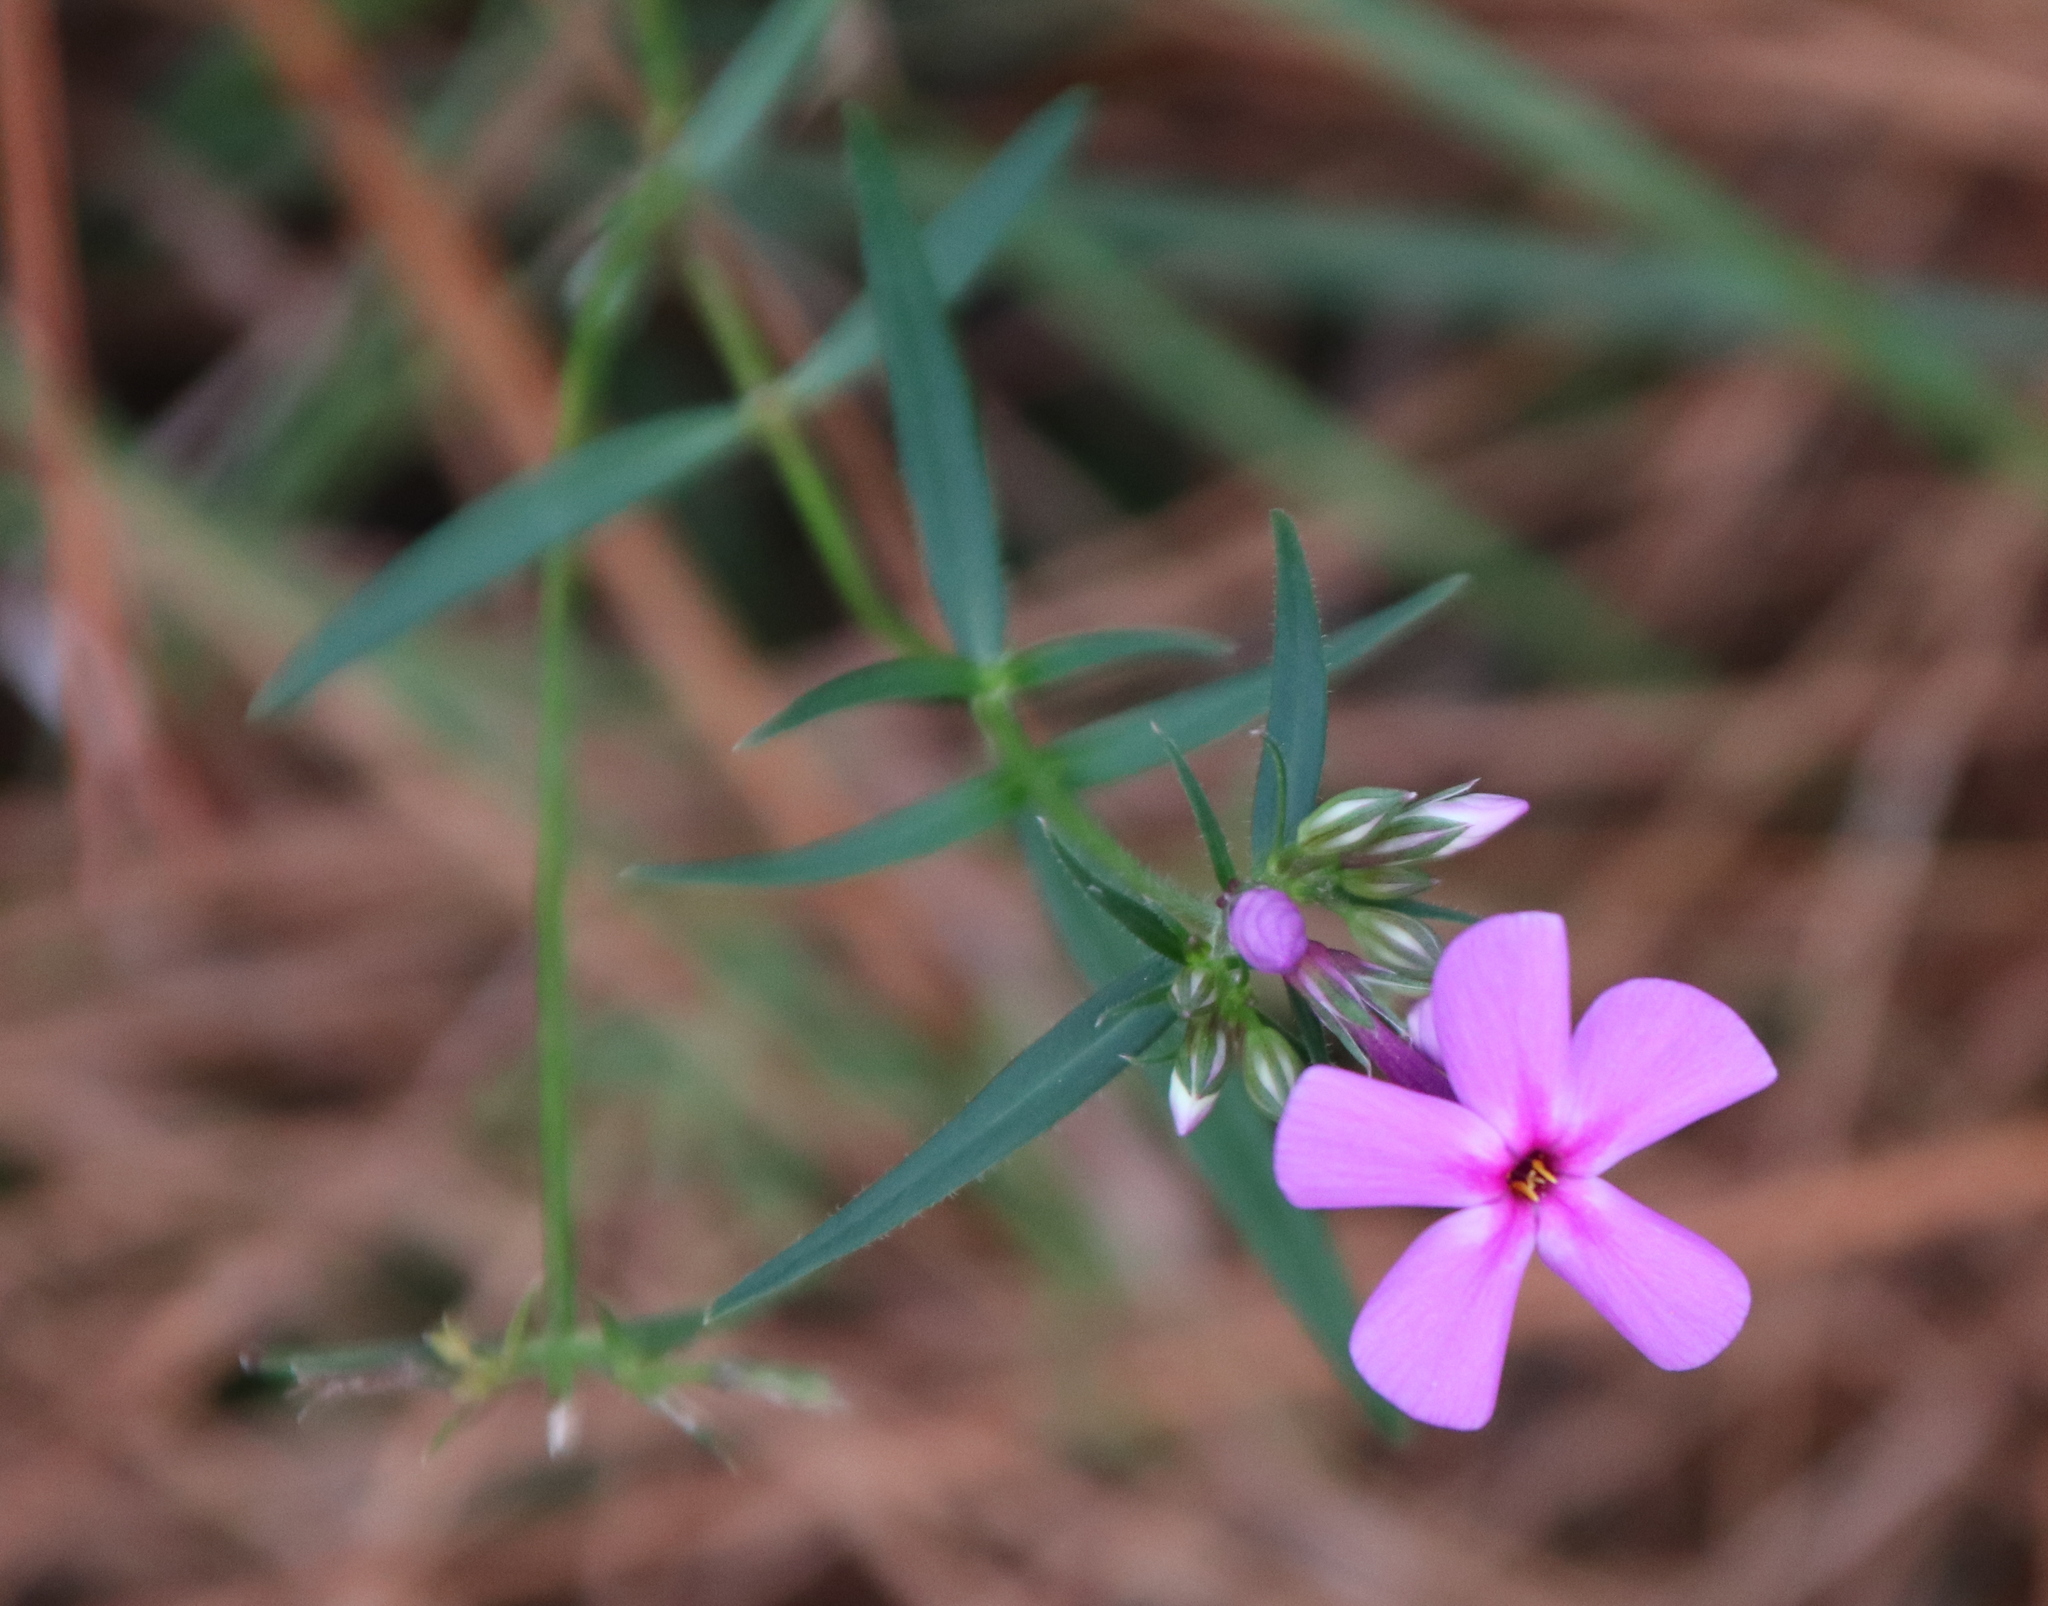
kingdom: Plantae
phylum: Tracheophyta
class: Magnoliopsida
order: Ericales
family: Polemoniaceae
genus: Phlox
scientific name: Phlox carolina
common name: Thick-leaf phlox
